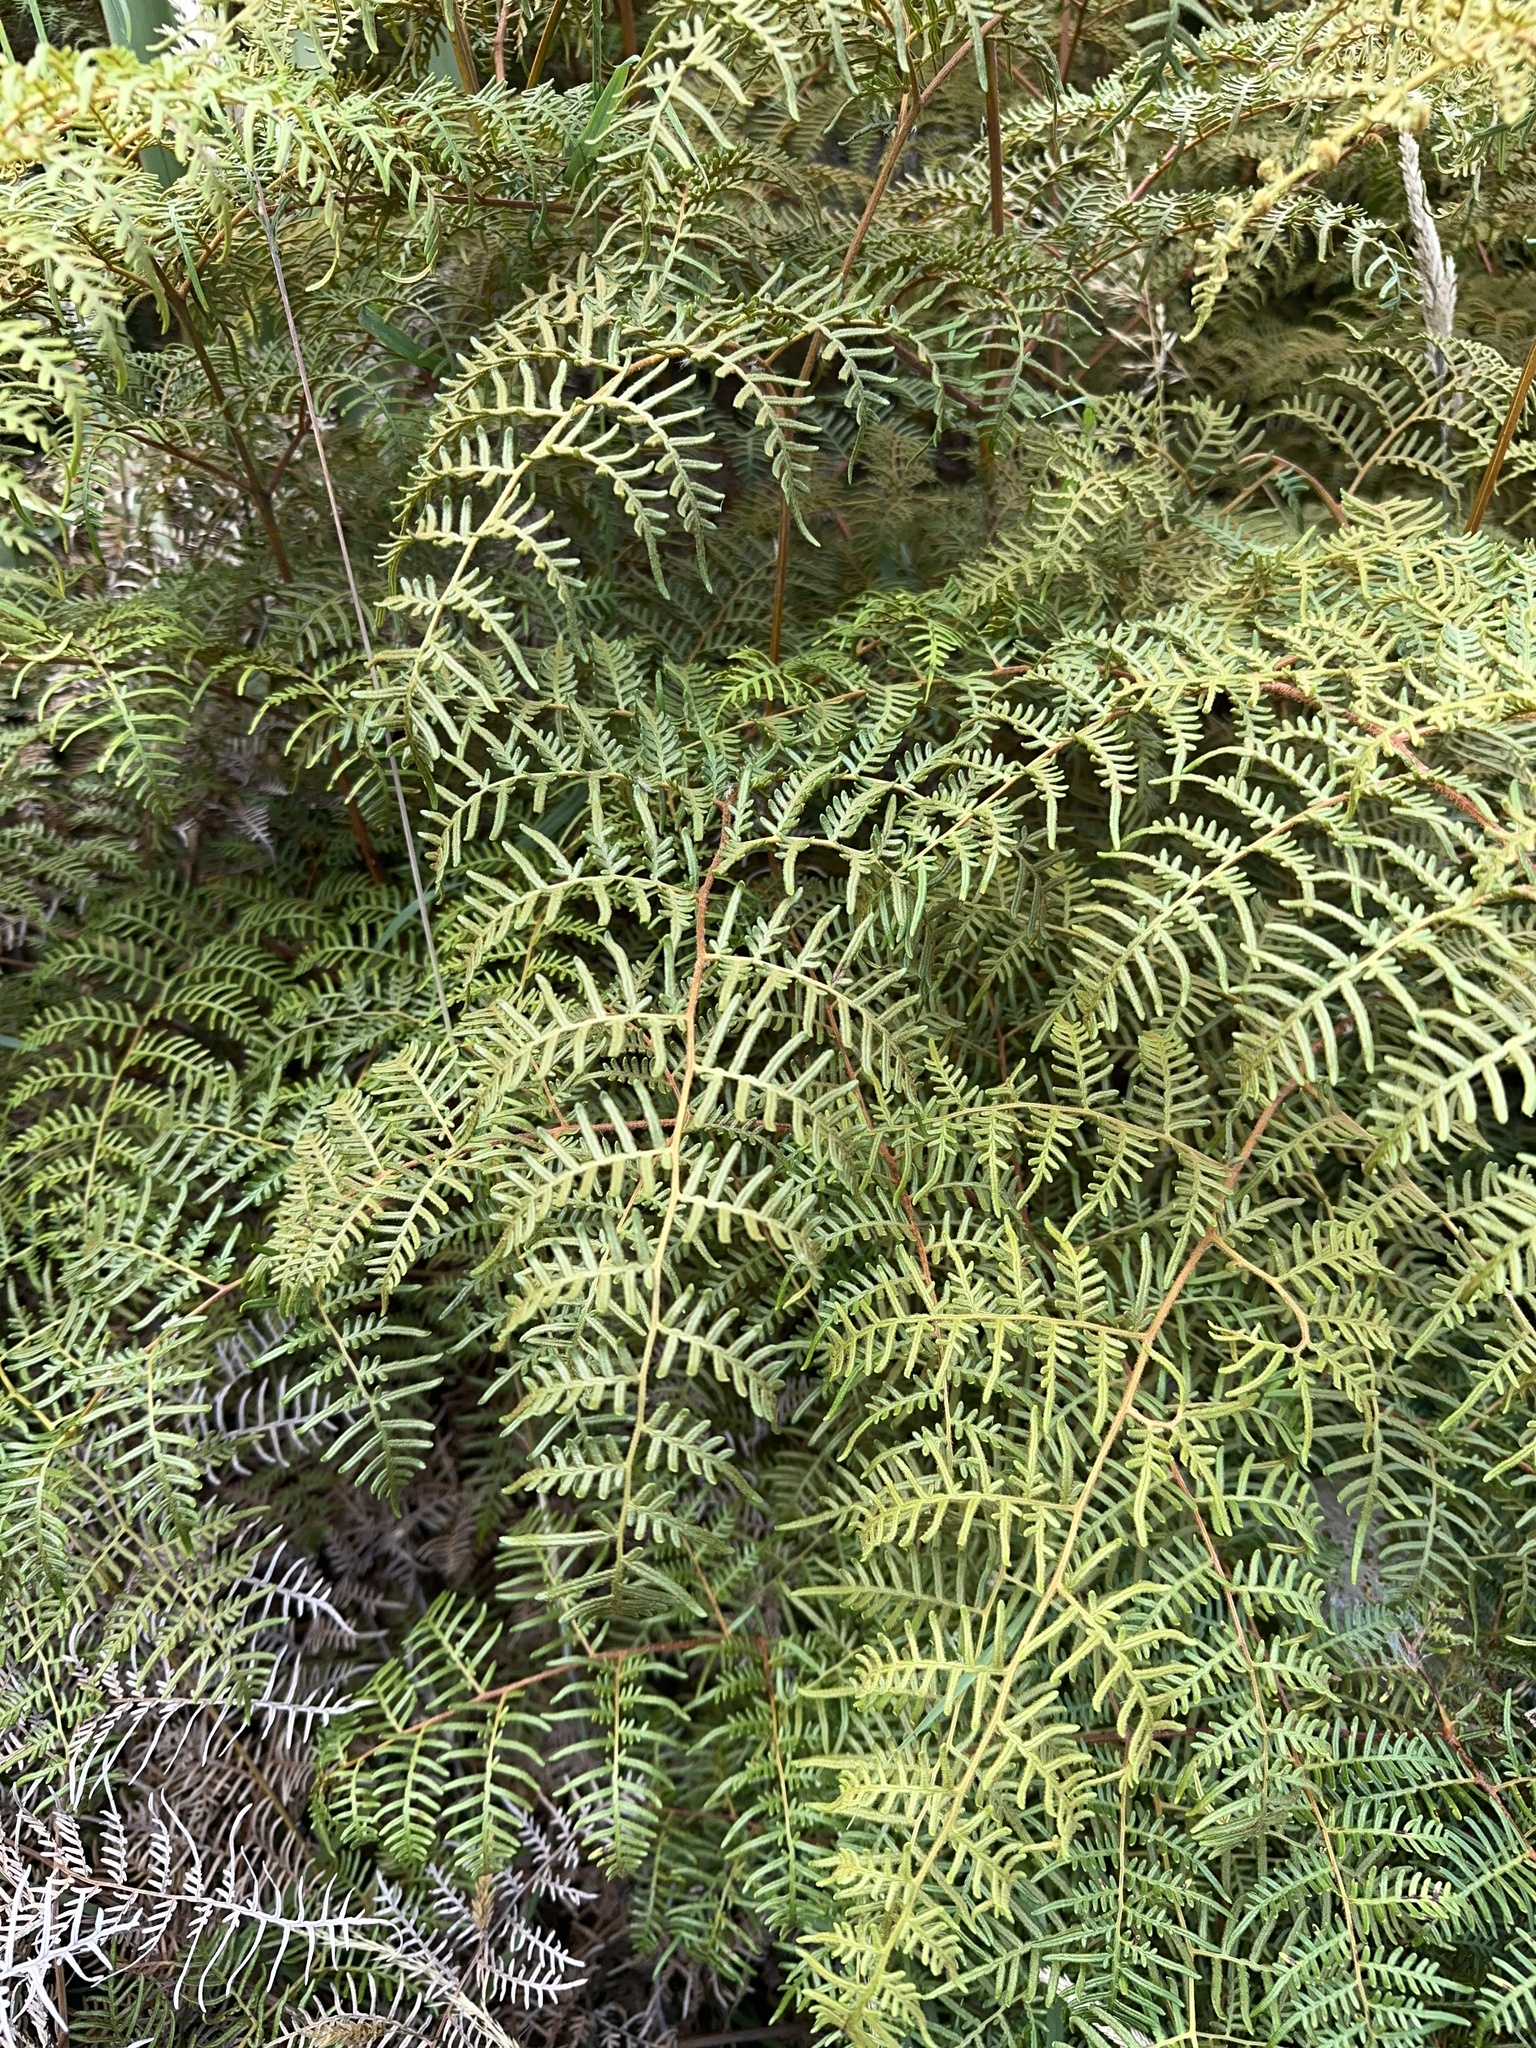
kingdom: Plantae
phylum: Tracheophyta
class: Polypodiopsida
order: Polypodiales
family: Dennstaedtiaceae
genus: Pteridium
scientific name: Pteridium esculentum
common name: Bracken fern
